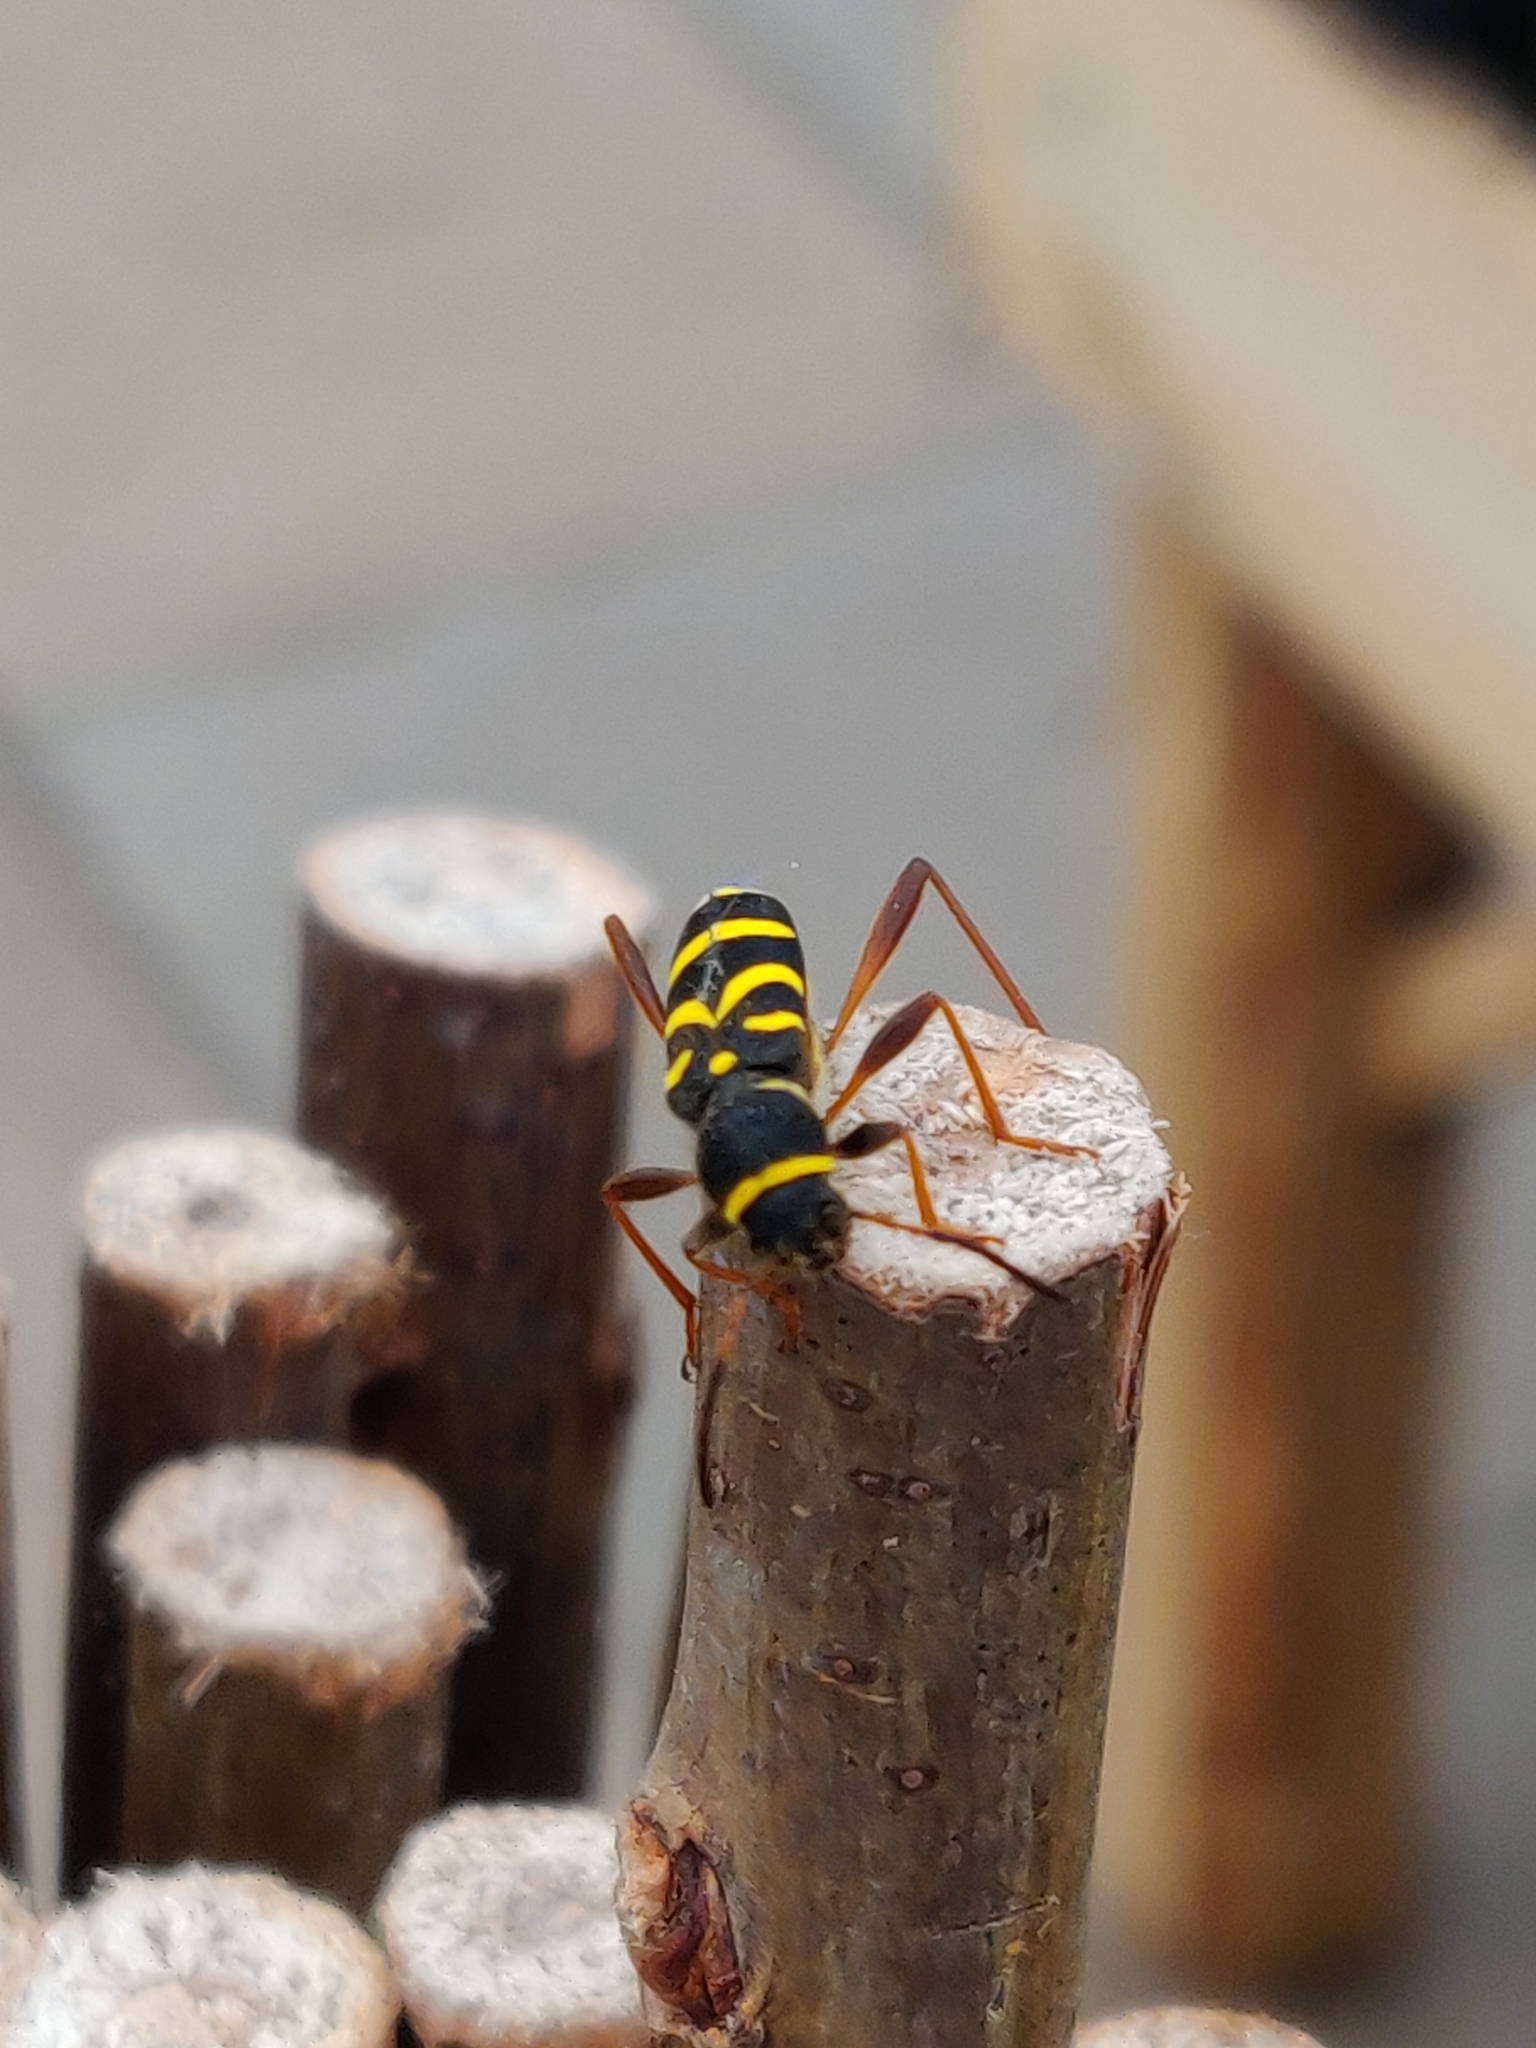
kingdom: Animalia
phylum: Arthropoda
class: Insecta
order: Coleoptera
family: Cerambycidae
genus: Clytus
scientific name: Clytus arietis
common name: Wasp beetle
